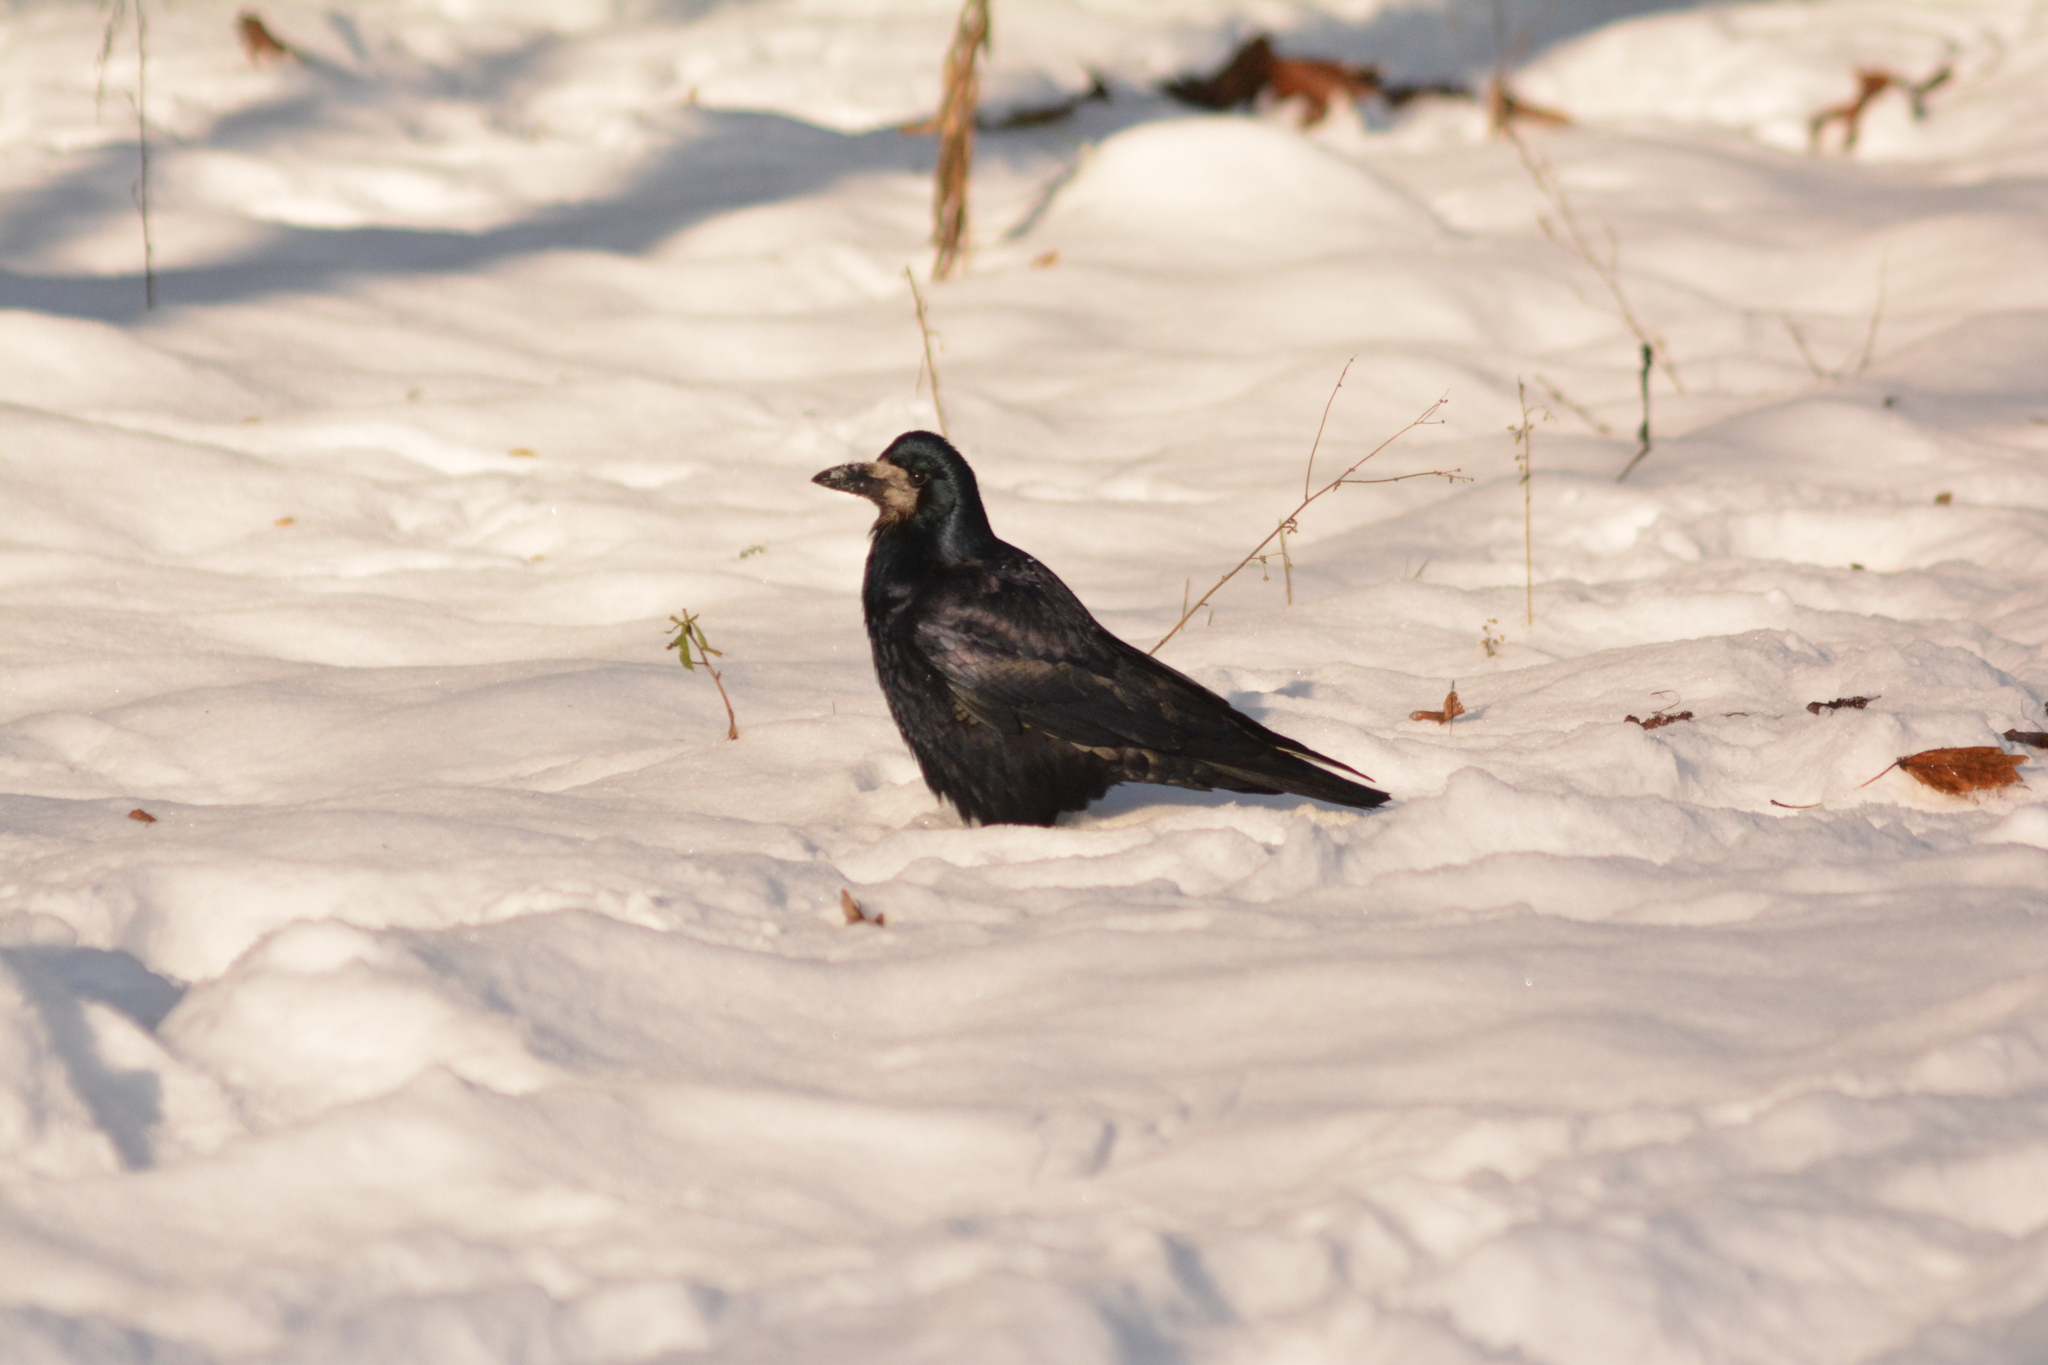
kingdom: Animalia
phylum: Chordata
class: Aves
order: Passeriformes
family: Corvidae
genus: Corvus
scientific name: Corvus frugilegus
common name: Rook
